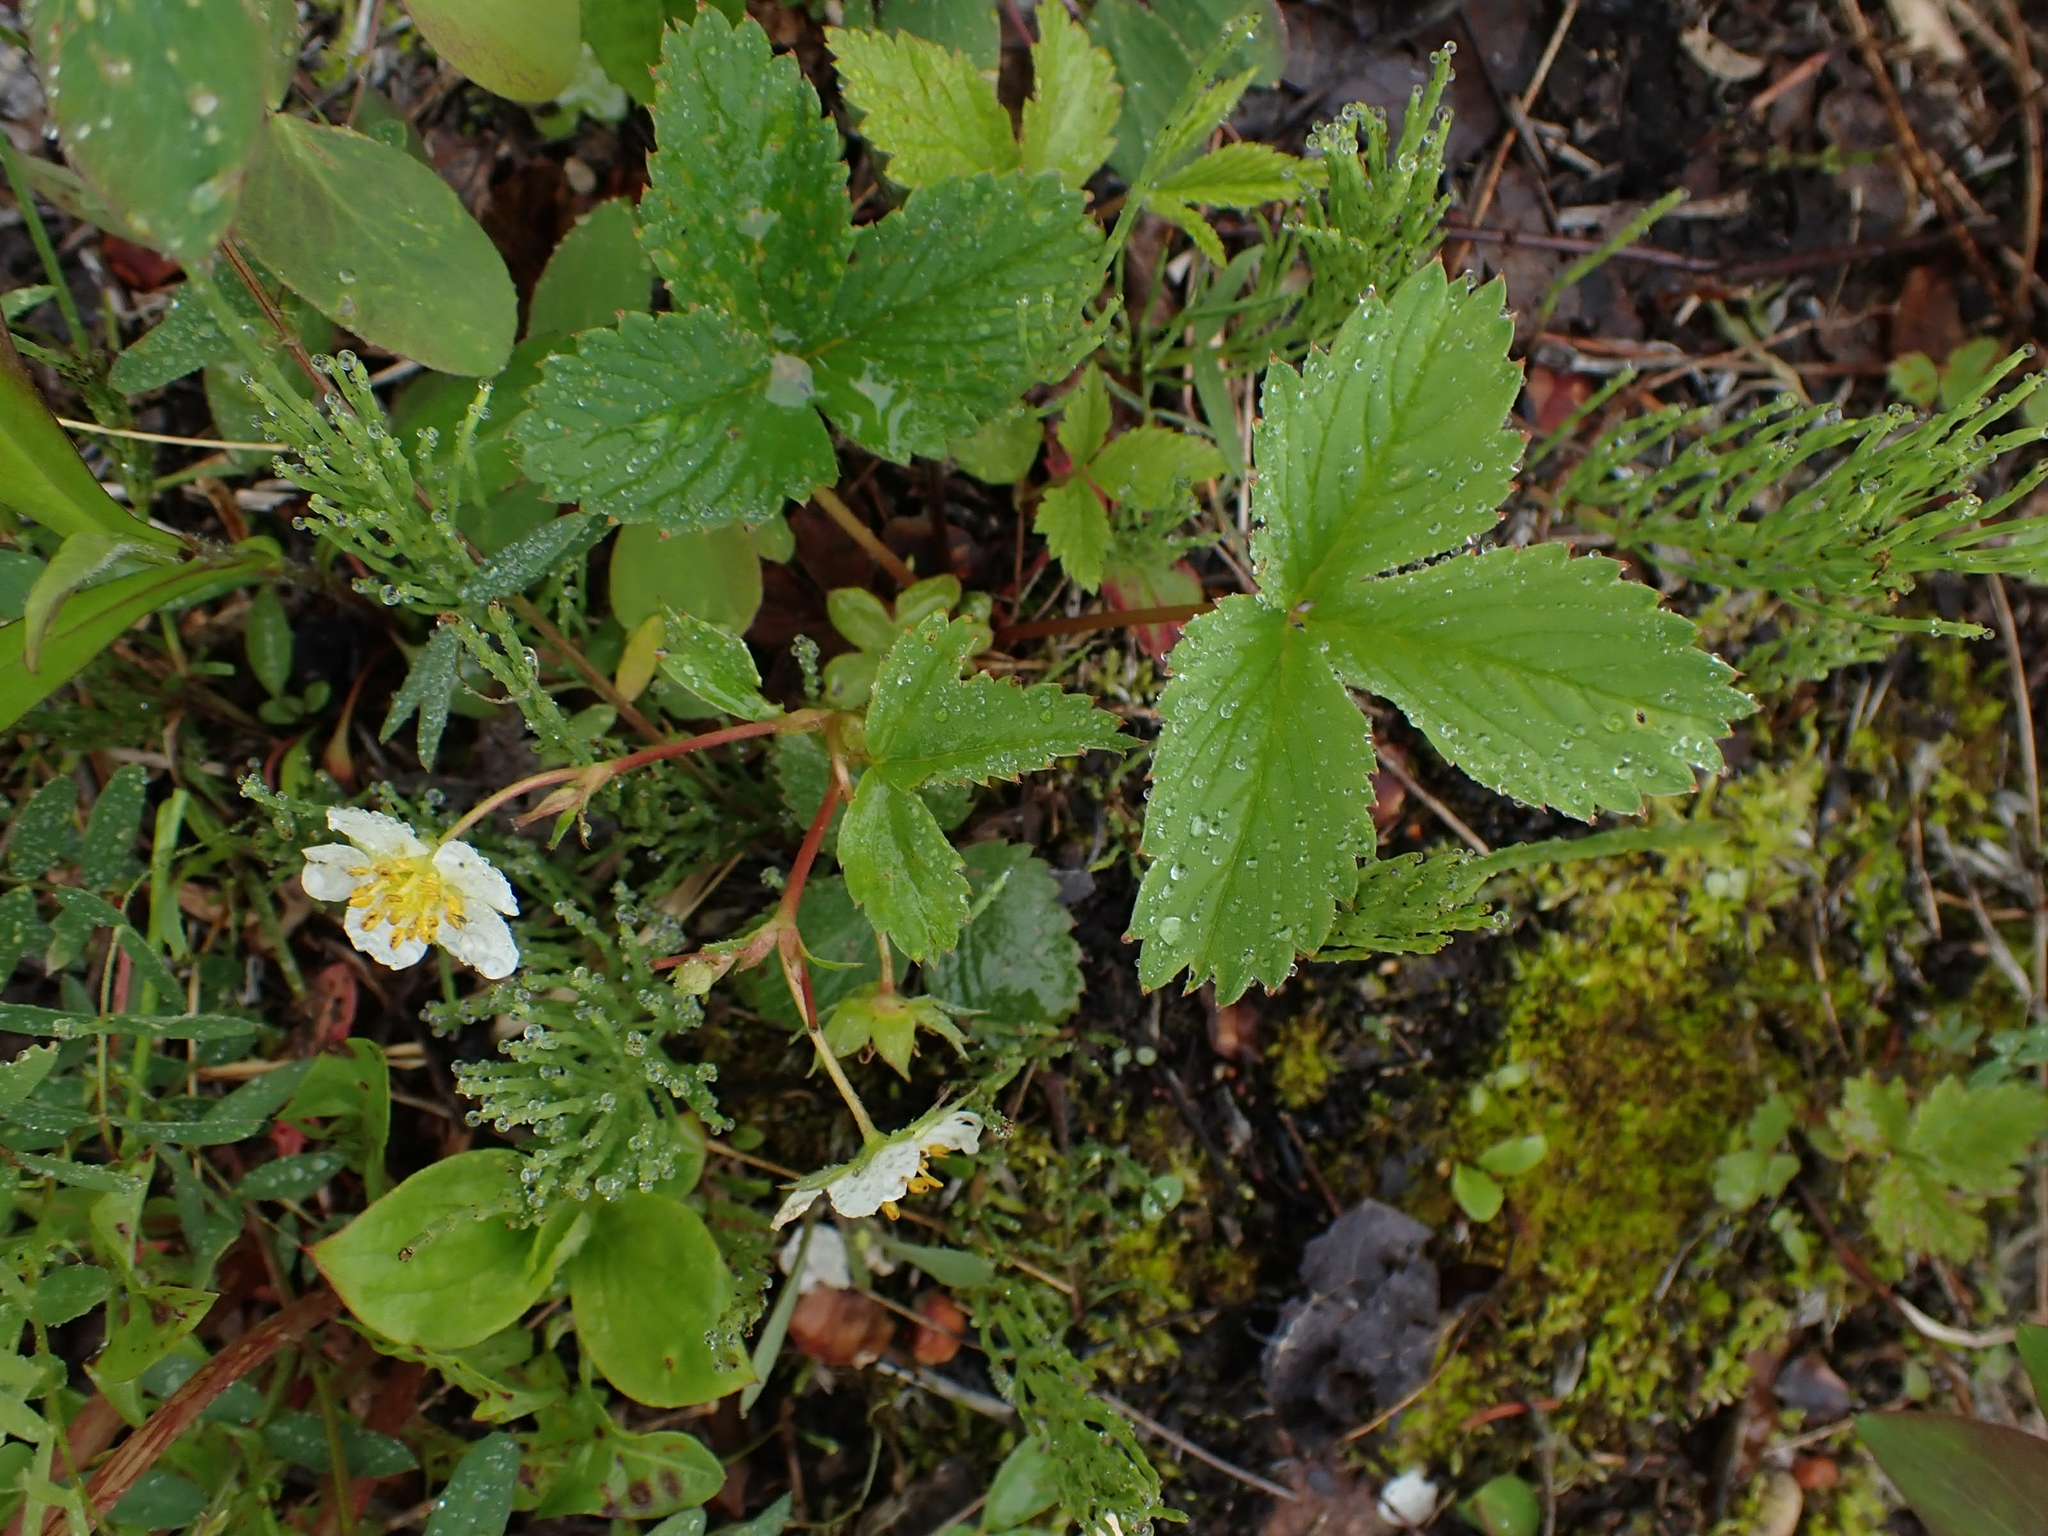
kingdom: Plantae
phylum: Tracheophyta
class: Magnoliopsida
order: Rosales
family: Rosaceae
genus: Fragaria
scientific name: Fragaria virginiana
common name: Thickleaved wild strawberry
